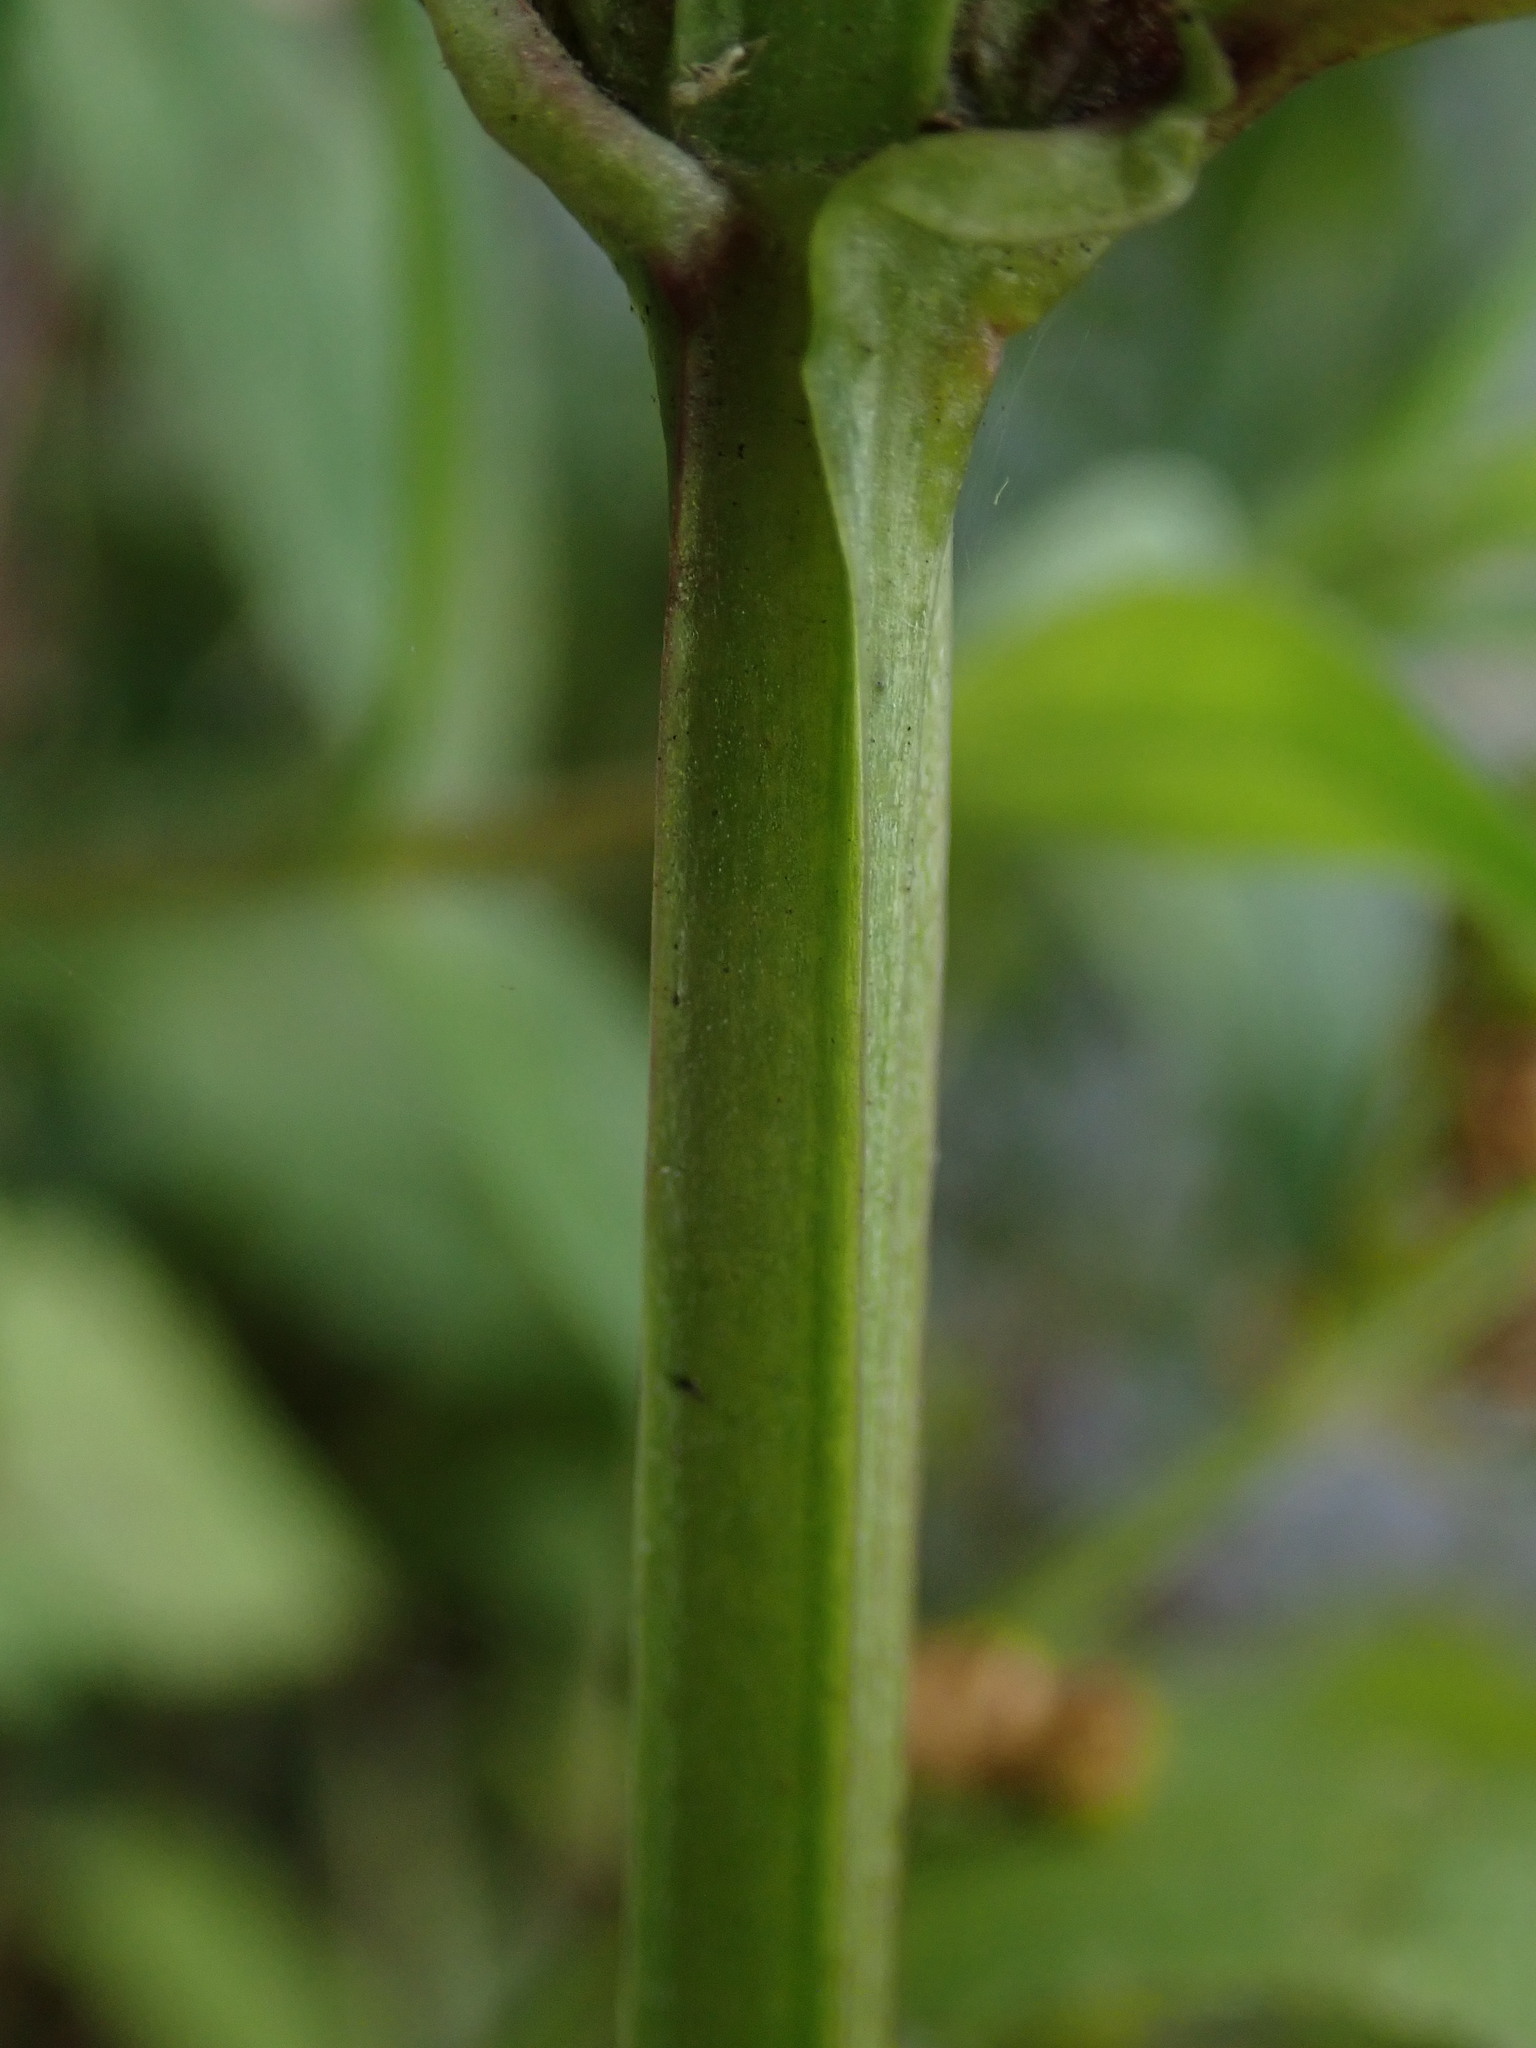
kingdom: Plantae
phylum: Tracheophyta
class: Magnoliopsida
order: Lamiales
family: Scrophulariaceae
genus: Scrophularia
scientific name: Scrophularia auriculata
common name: Water betony
